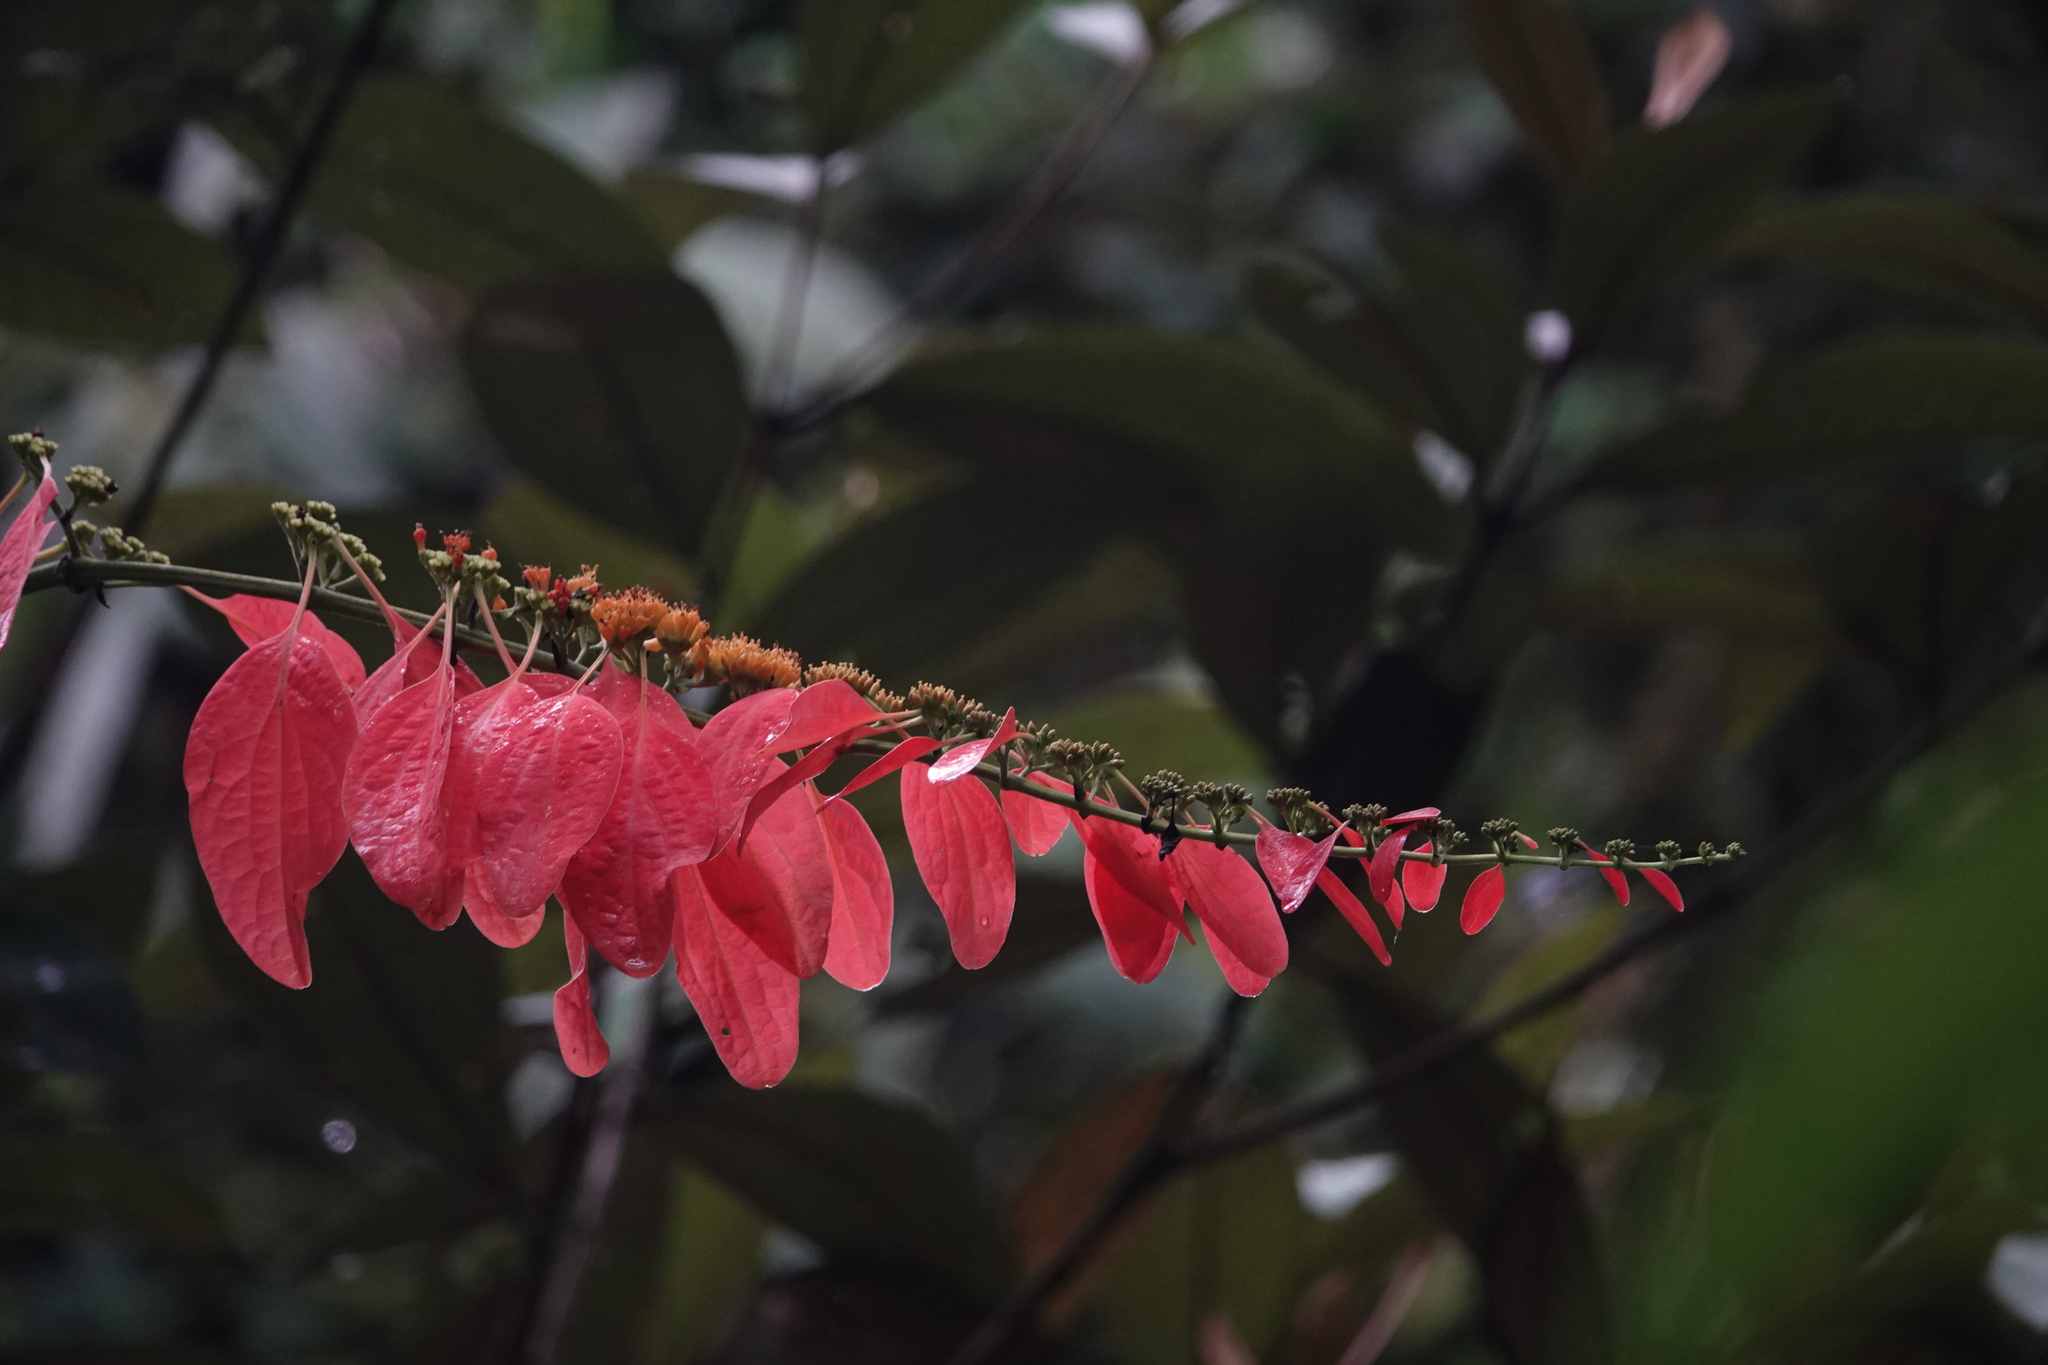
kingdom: Plantae
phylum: Tracheophyta
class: Magnoliopsida
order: Gentianales
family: Rubiaceae
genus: Warszewiczia
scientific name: Warszewiczia coccinea
